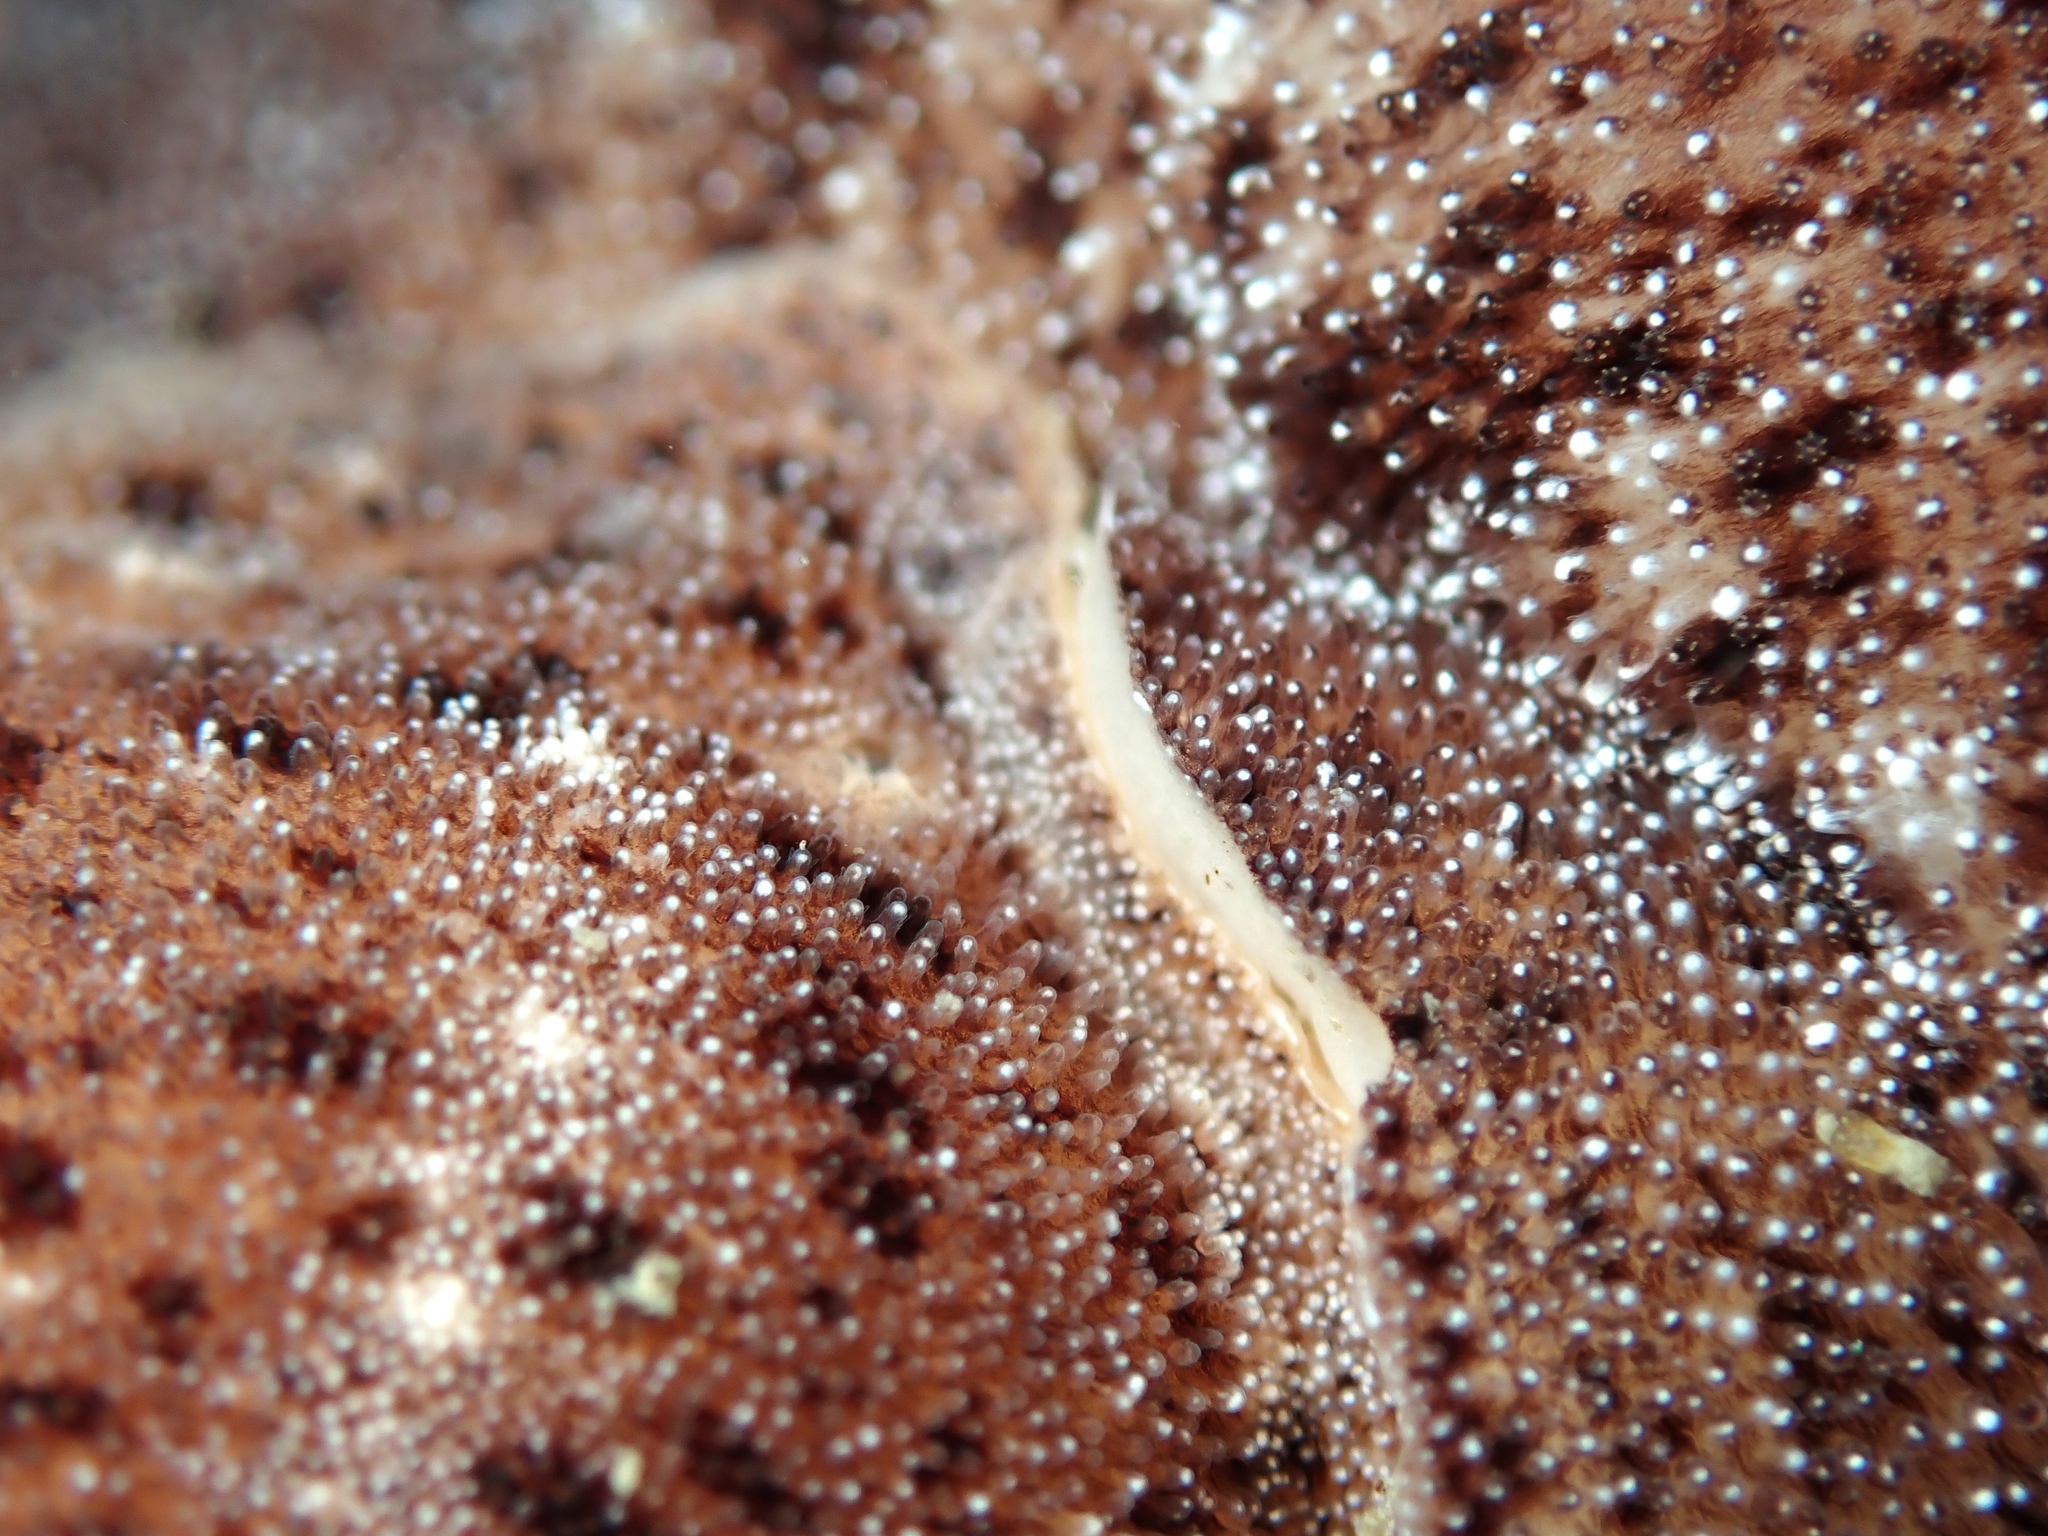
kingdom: Animalia
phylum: Mollusca
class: Gastropoda
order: Nudibranchia
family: Discodorididae
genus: Alloiodoris
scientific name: Alloiodoris lanuginata
